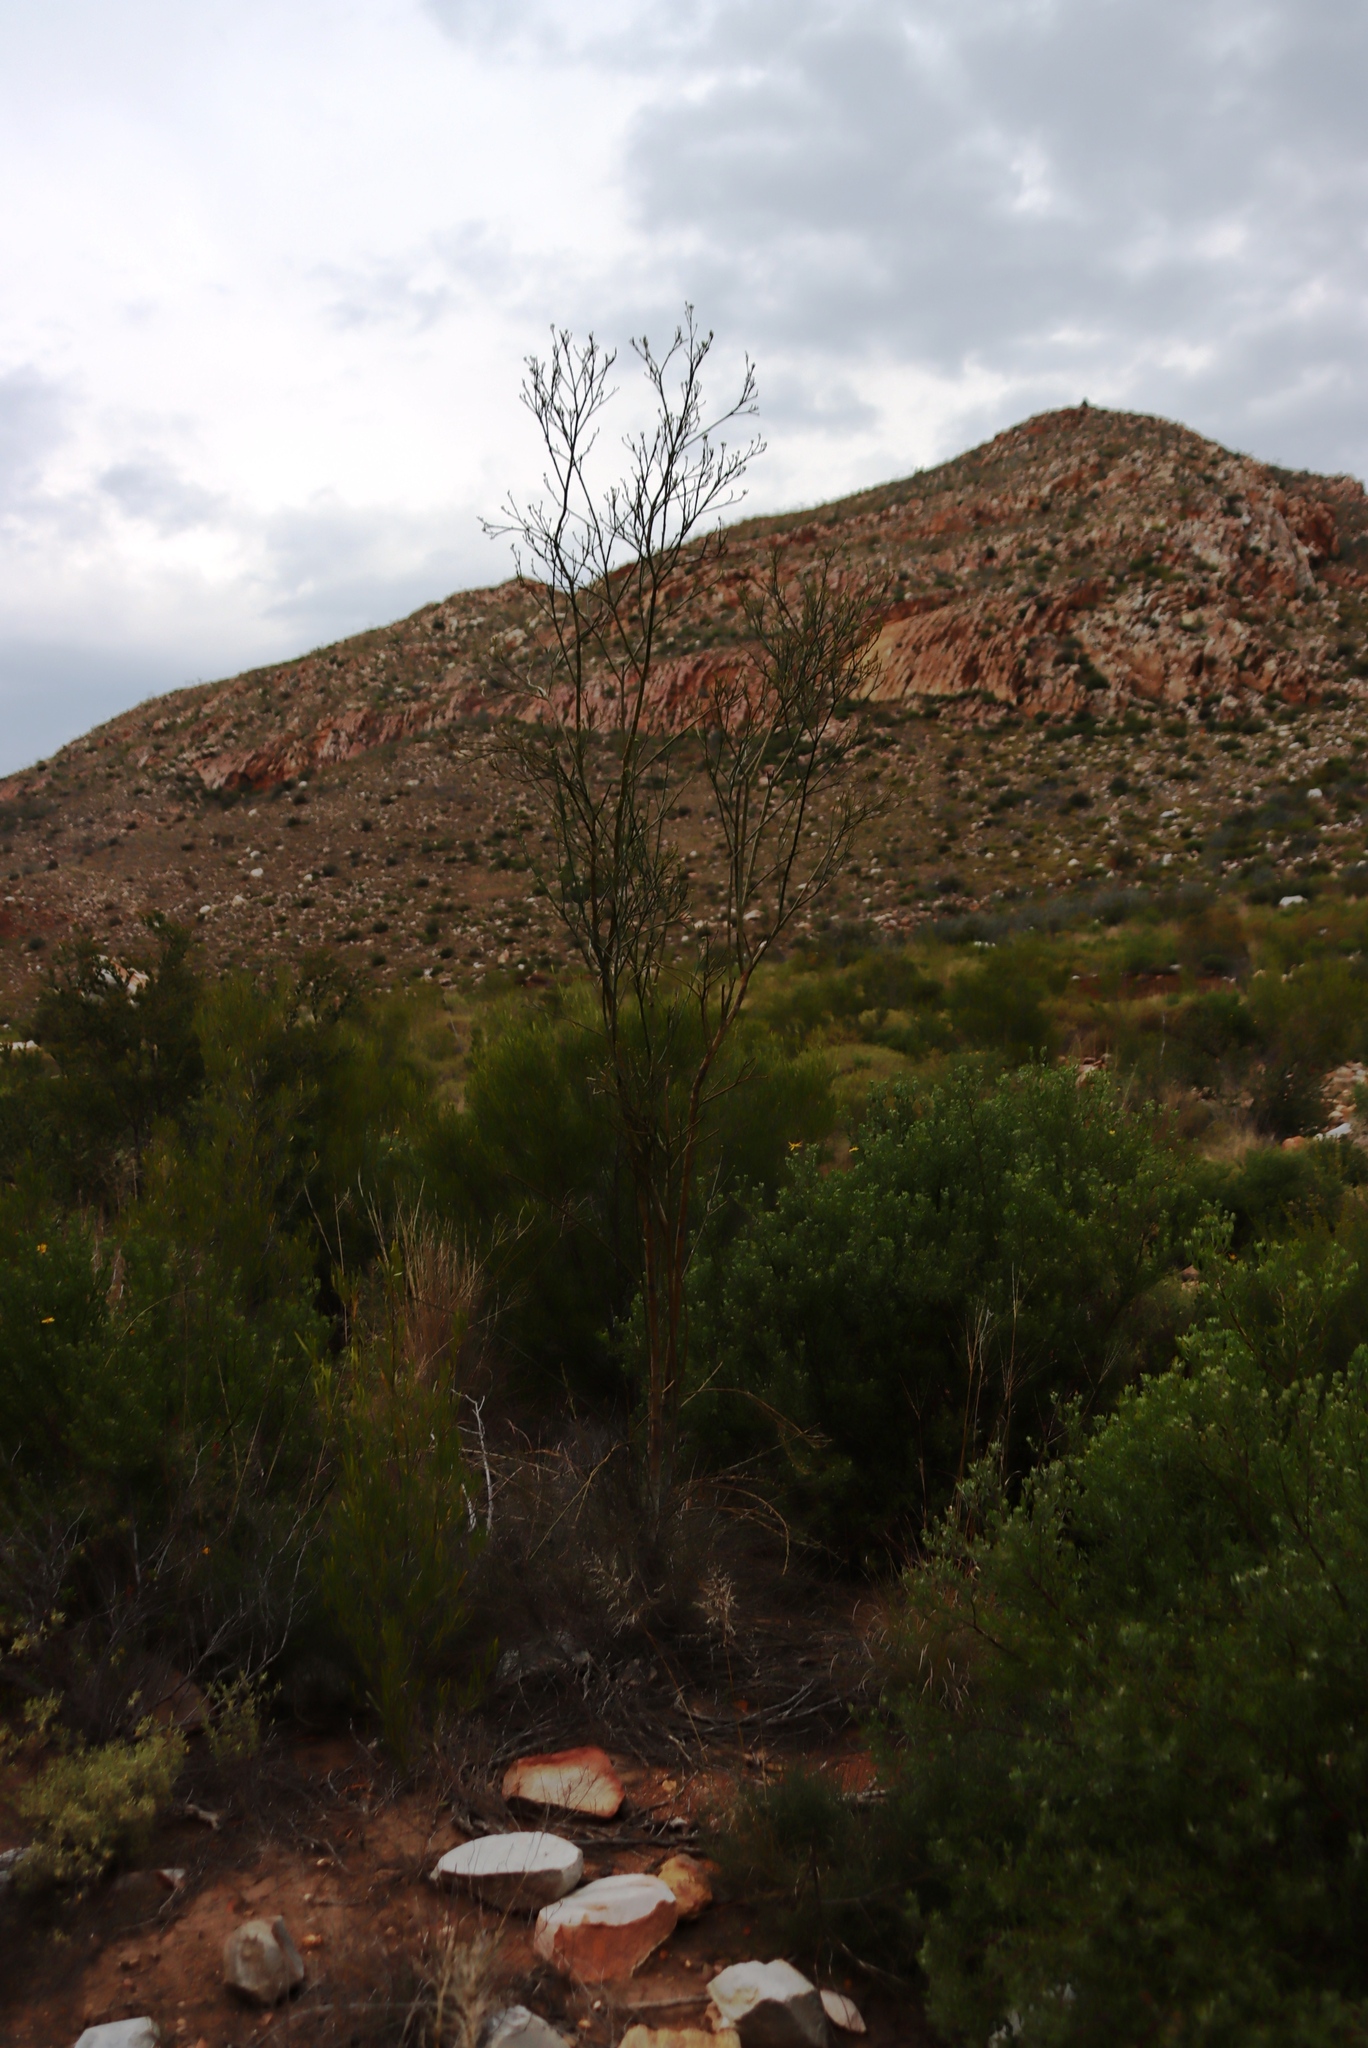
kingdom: Plantae
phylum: Tracheophyta
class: Magnoliopsida
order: Santalales
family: Thesiaceae
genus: Thesium
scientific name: Thesium strictum
